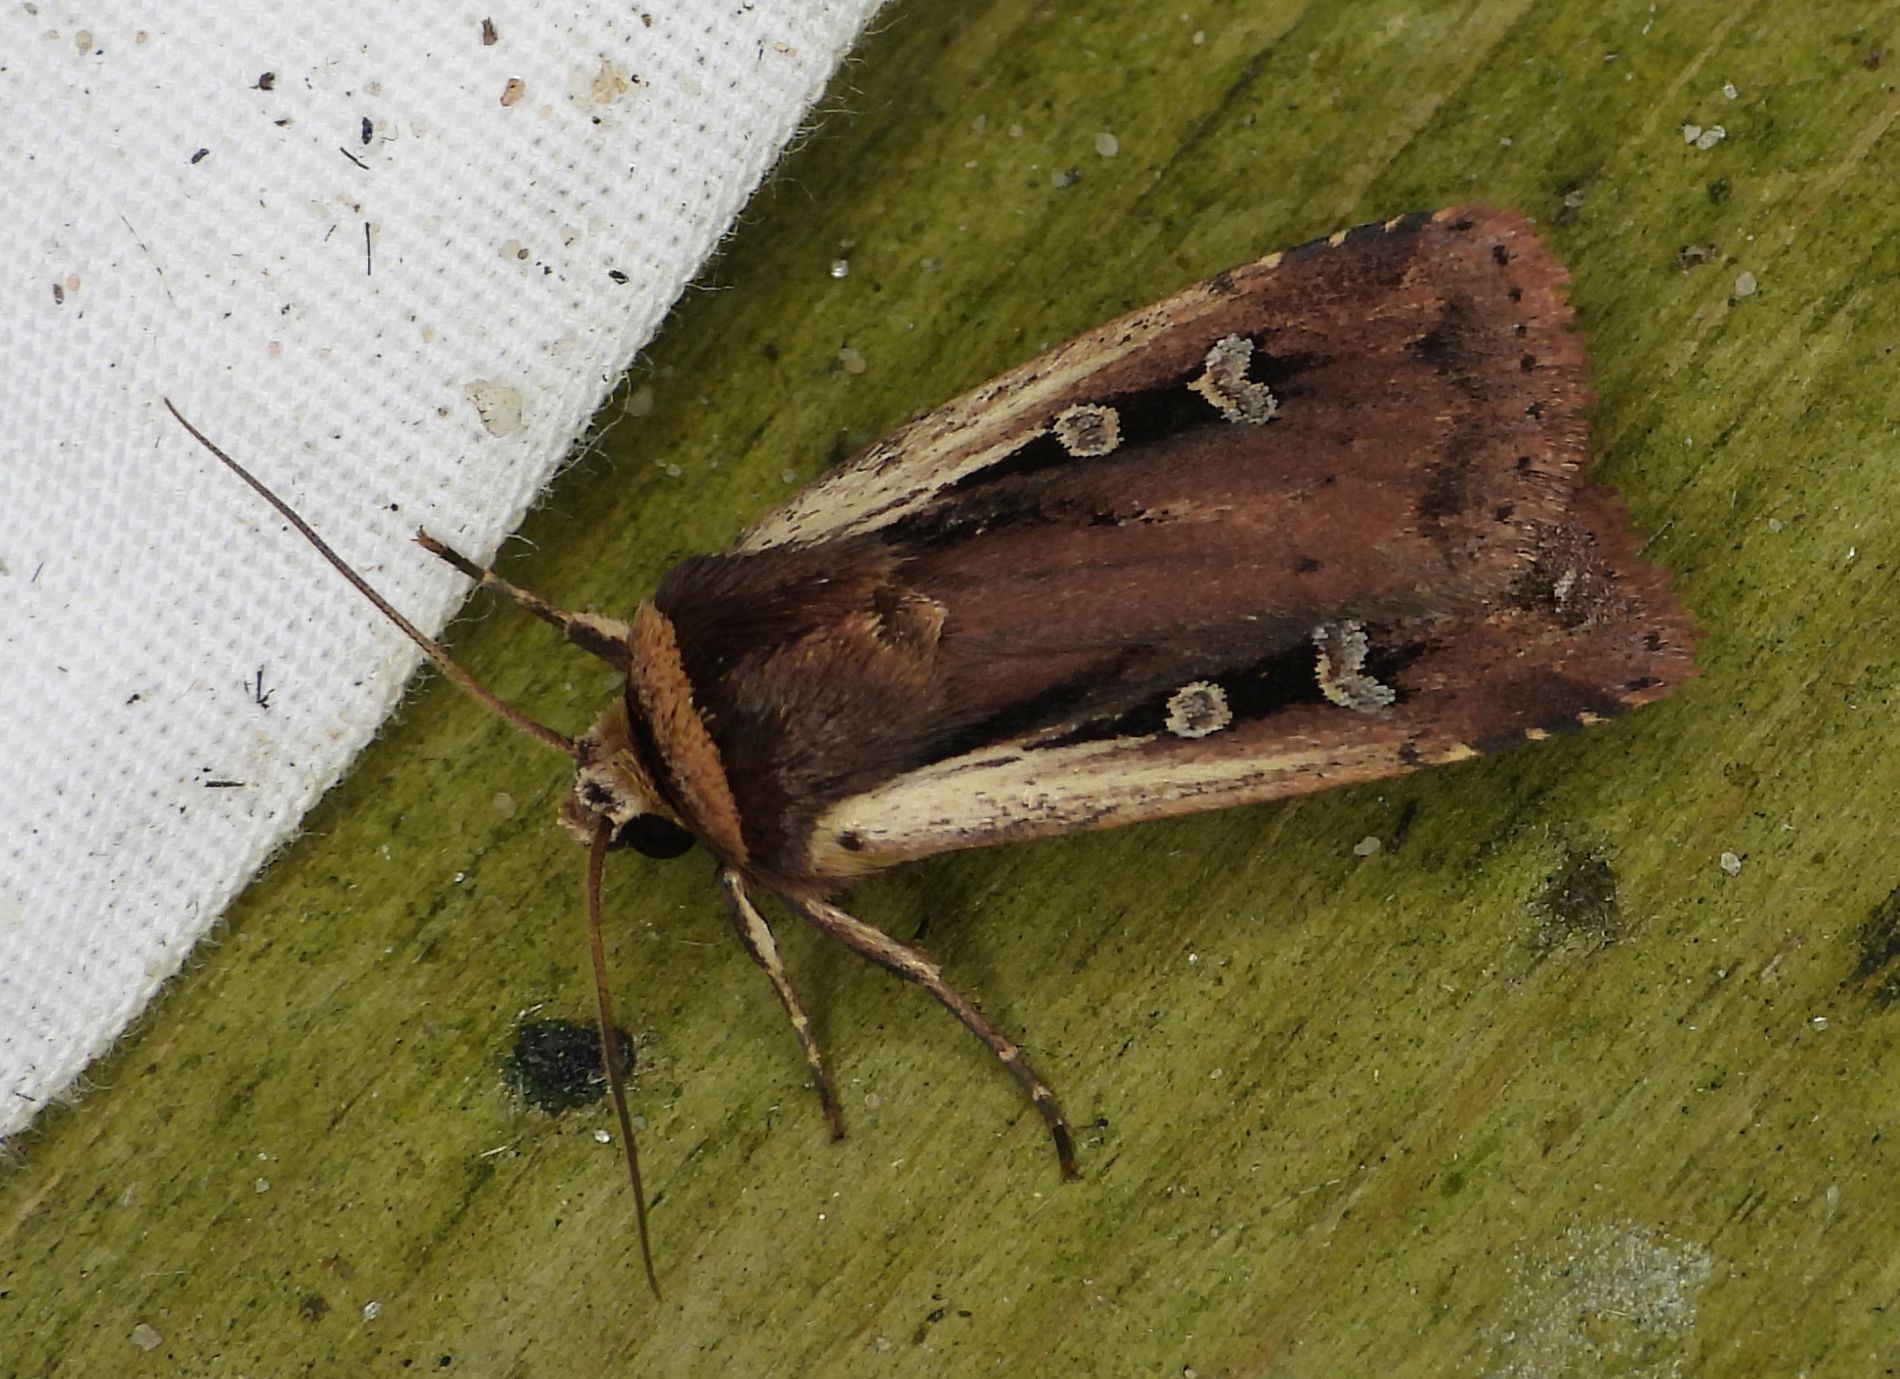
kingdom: Animalia
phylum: Arthropoda
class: Insecta
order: Lepidoptera
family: Noctuidae
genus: Ochropleura
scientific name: Ochropleura implecta
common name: Flame-shouldered dart
